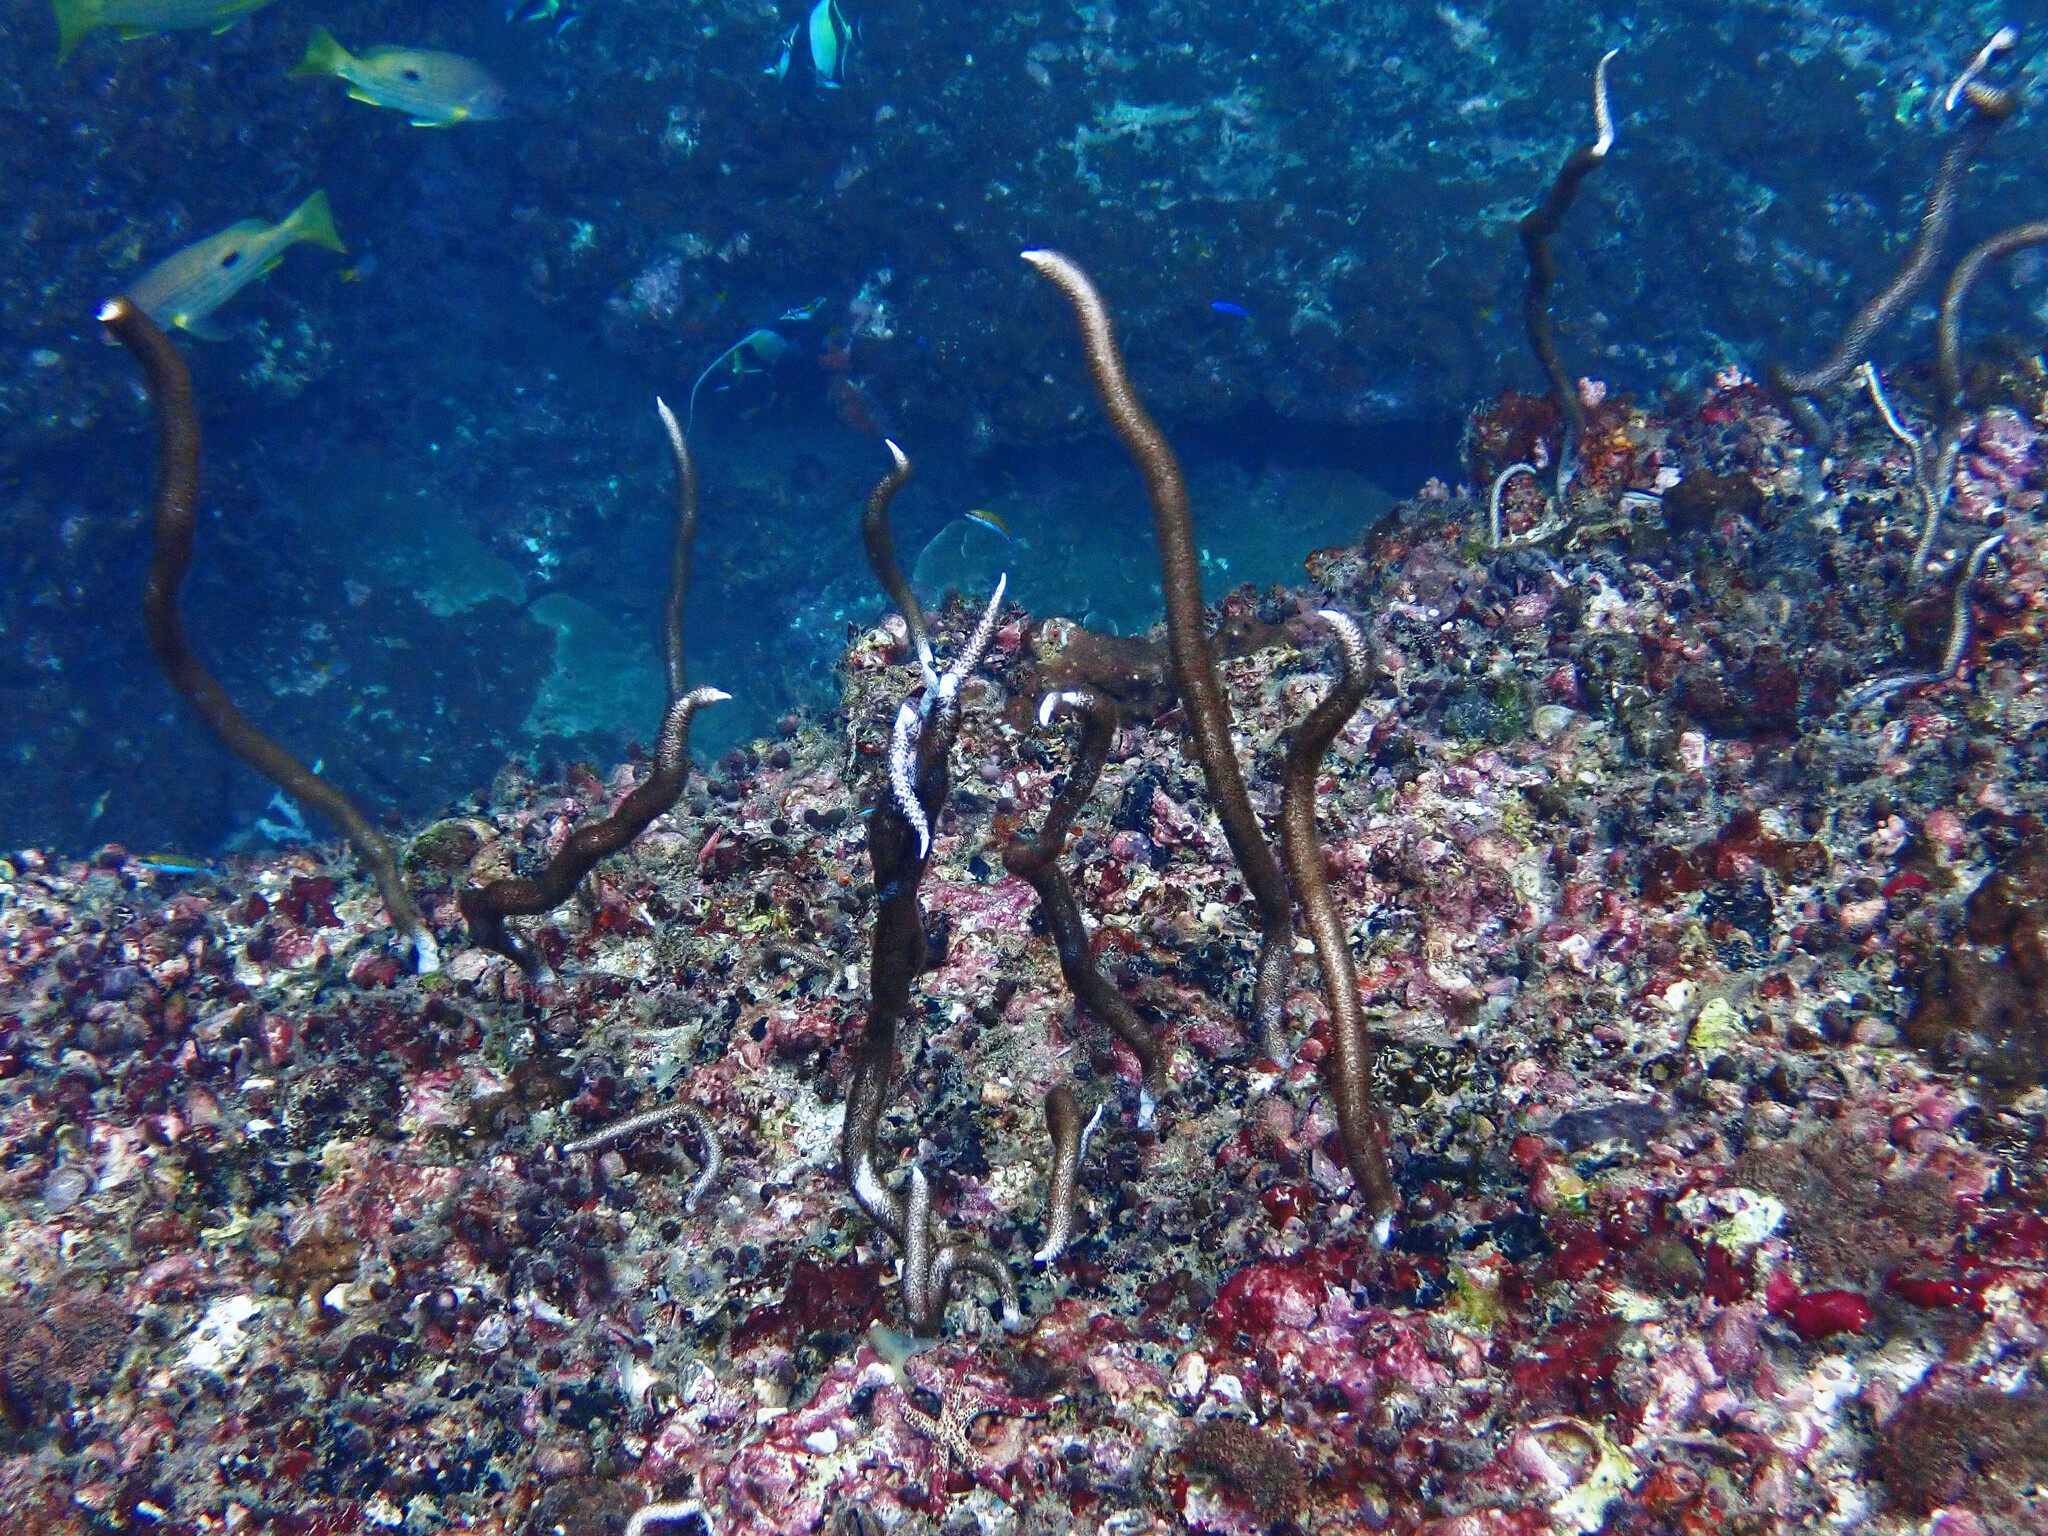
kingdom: Animalia
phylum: Cnidaria
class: Anthozoa
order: Scleralcyonacea
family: Ellisellidae
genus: Junceella
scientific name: Junceella fragilis
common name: Fragile sea whip
